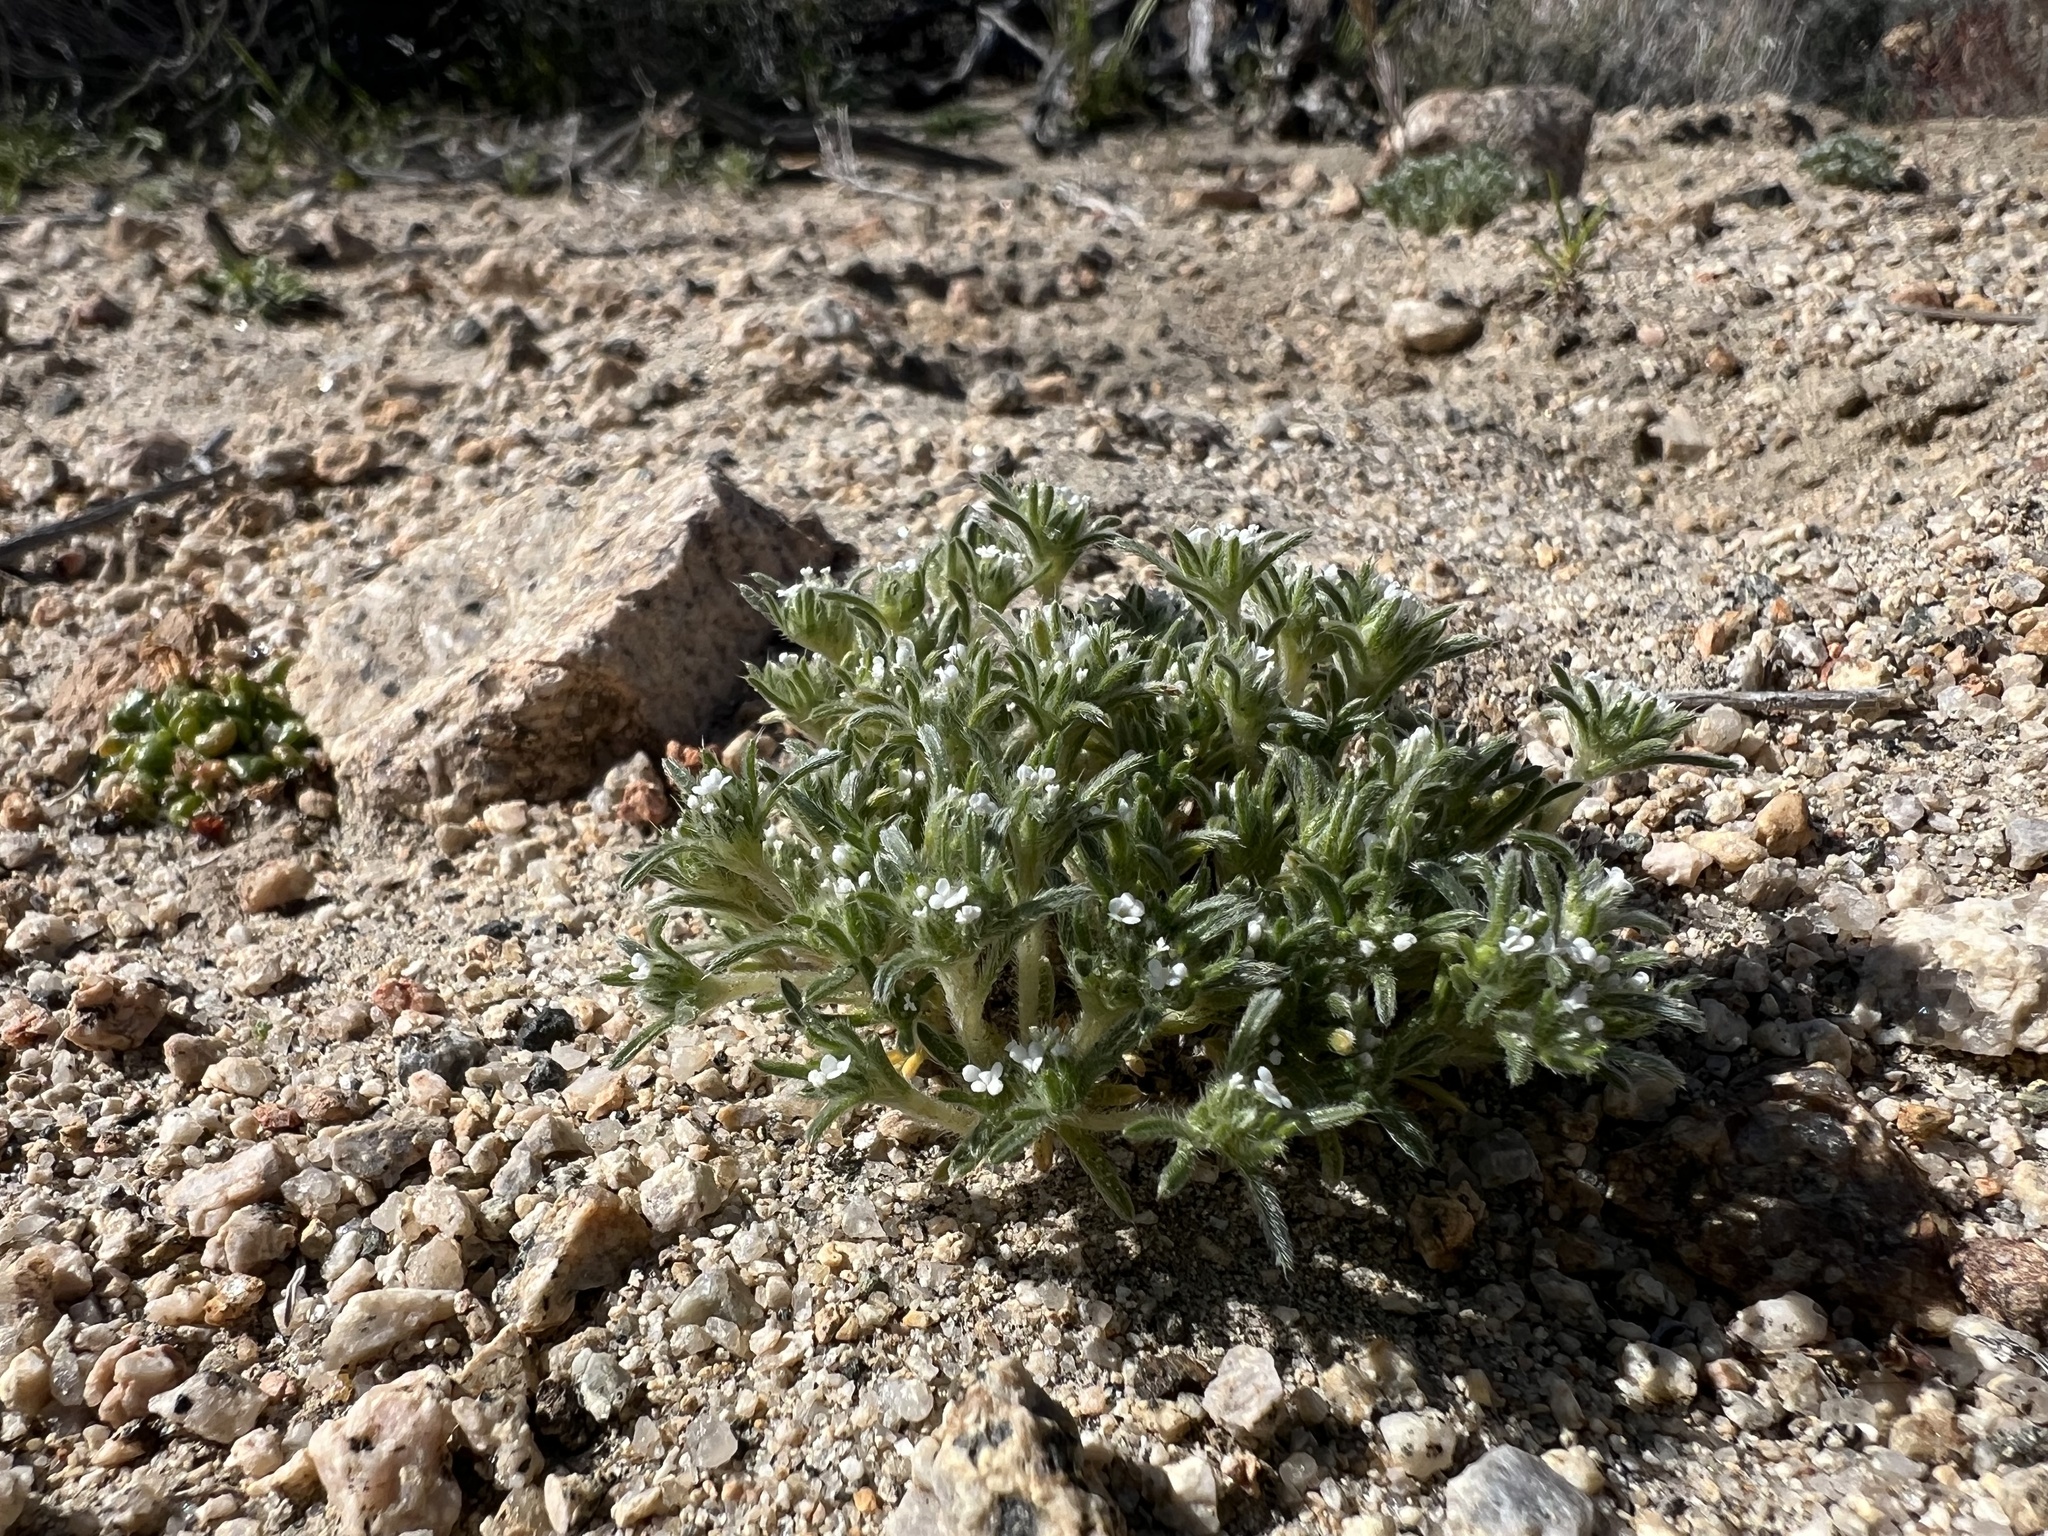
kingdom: Plantae
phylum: Tracheophyta
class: Magnoliopsida
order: Boraginales
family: Boraginaceae
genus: Greeneocharis
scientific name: Greeneocharis circumscissa
